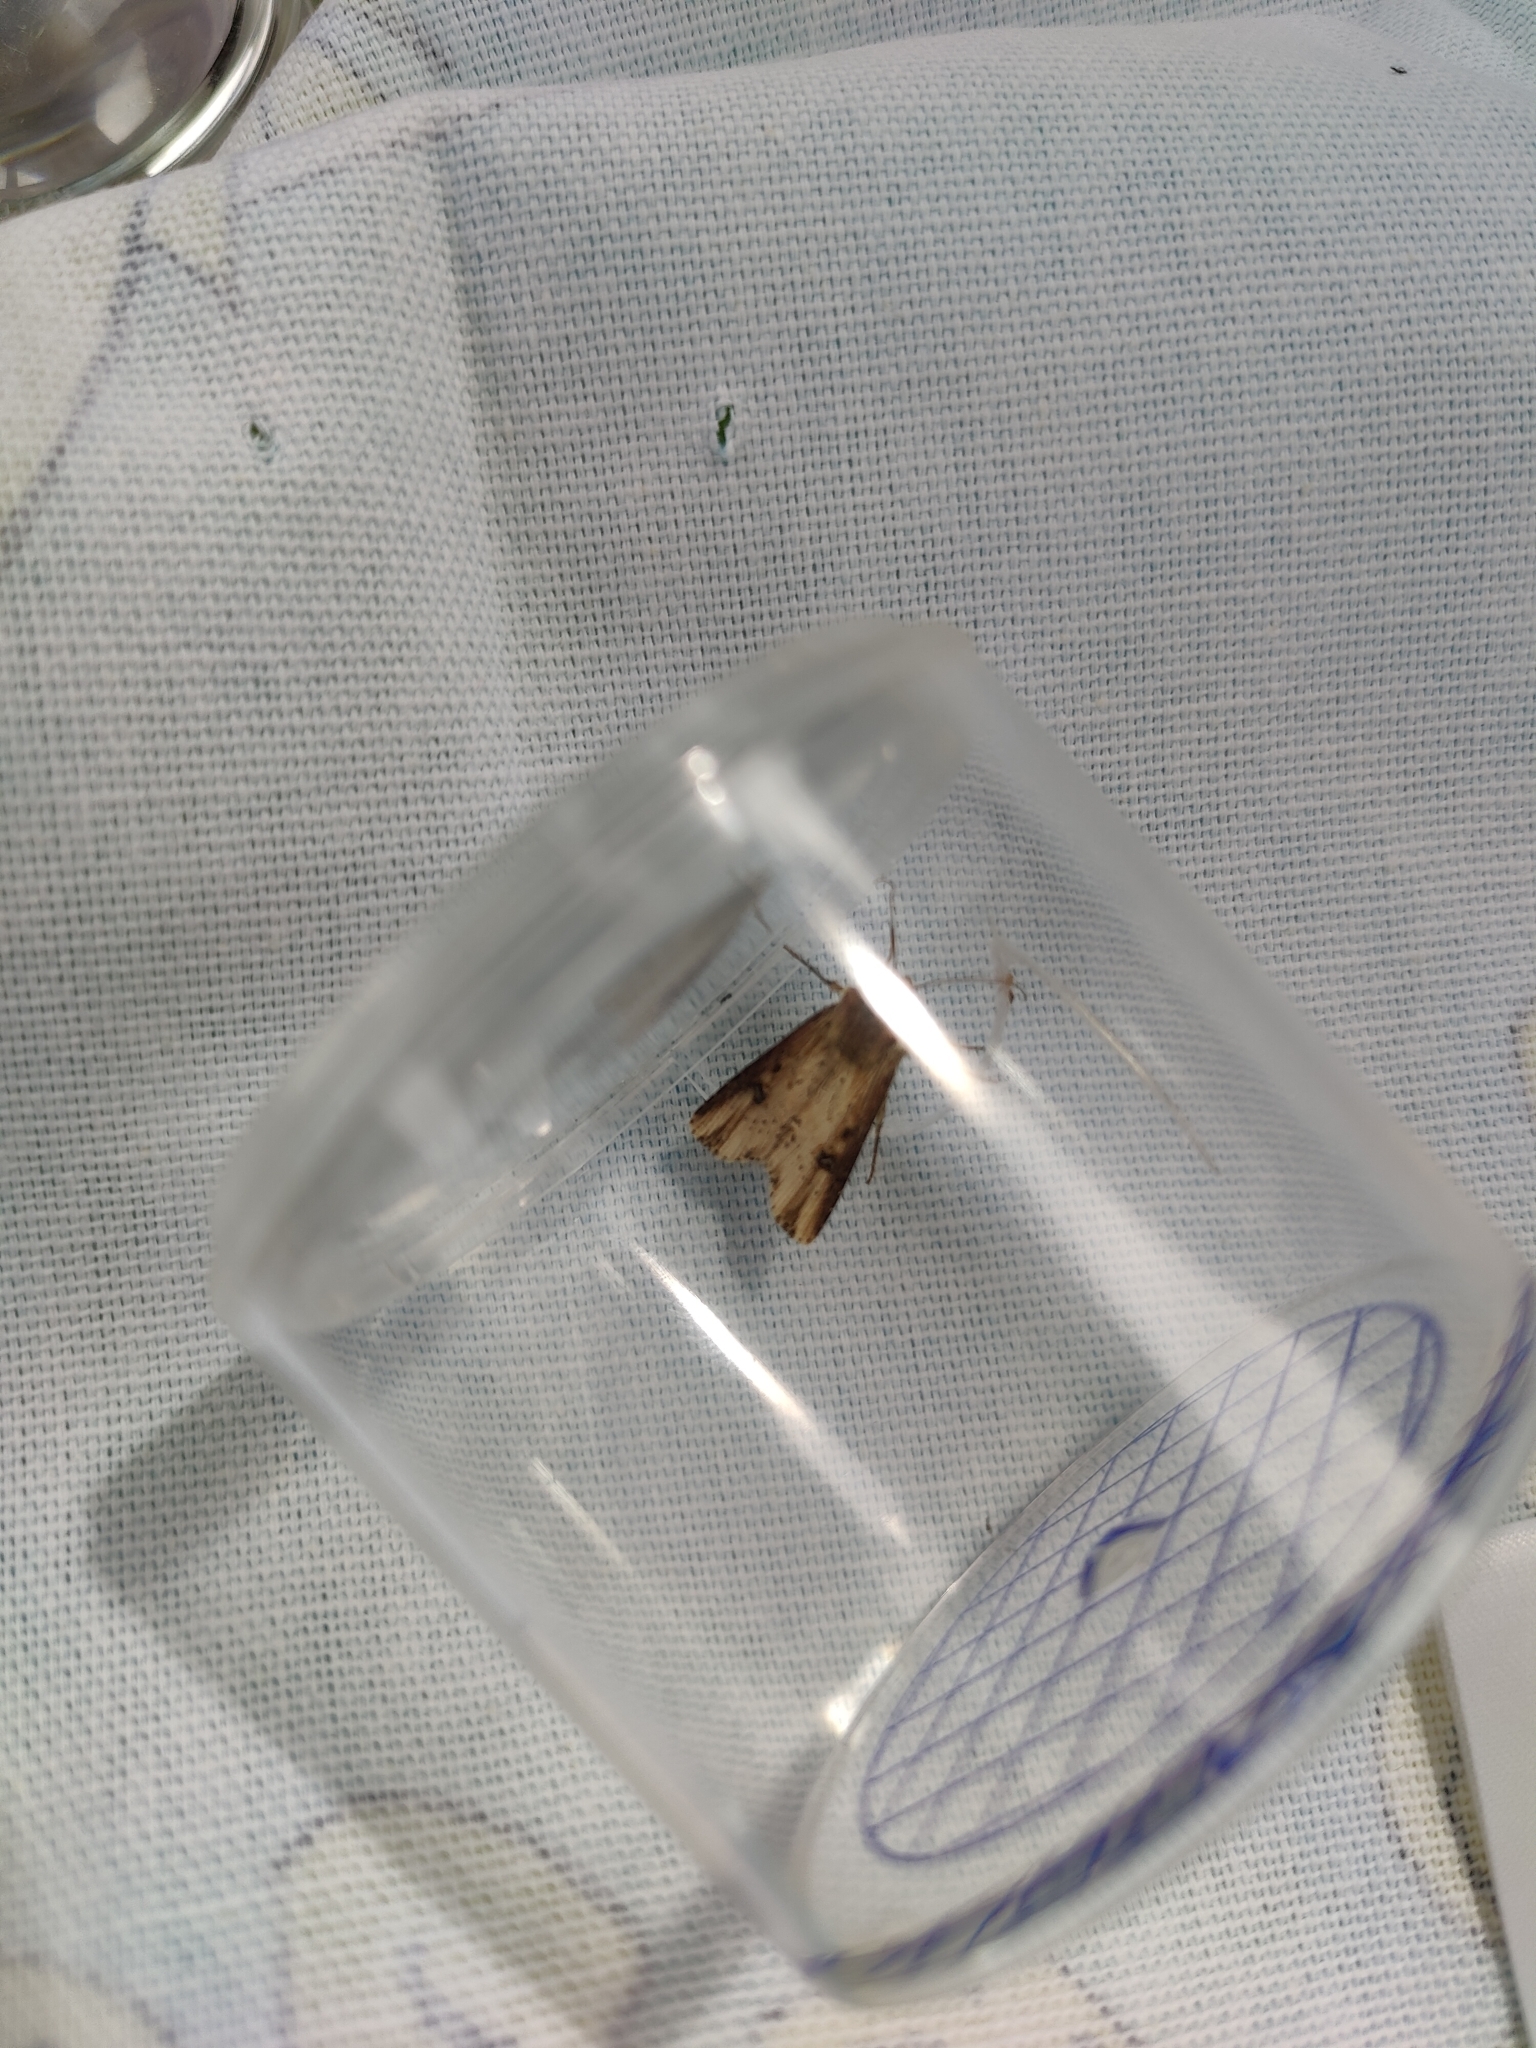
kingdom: Animalia
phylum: Arthropoda
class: Insecta
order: Lepidoptera
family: Noctuidae
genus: Axylia
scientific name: Axylia putris
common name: Flame
